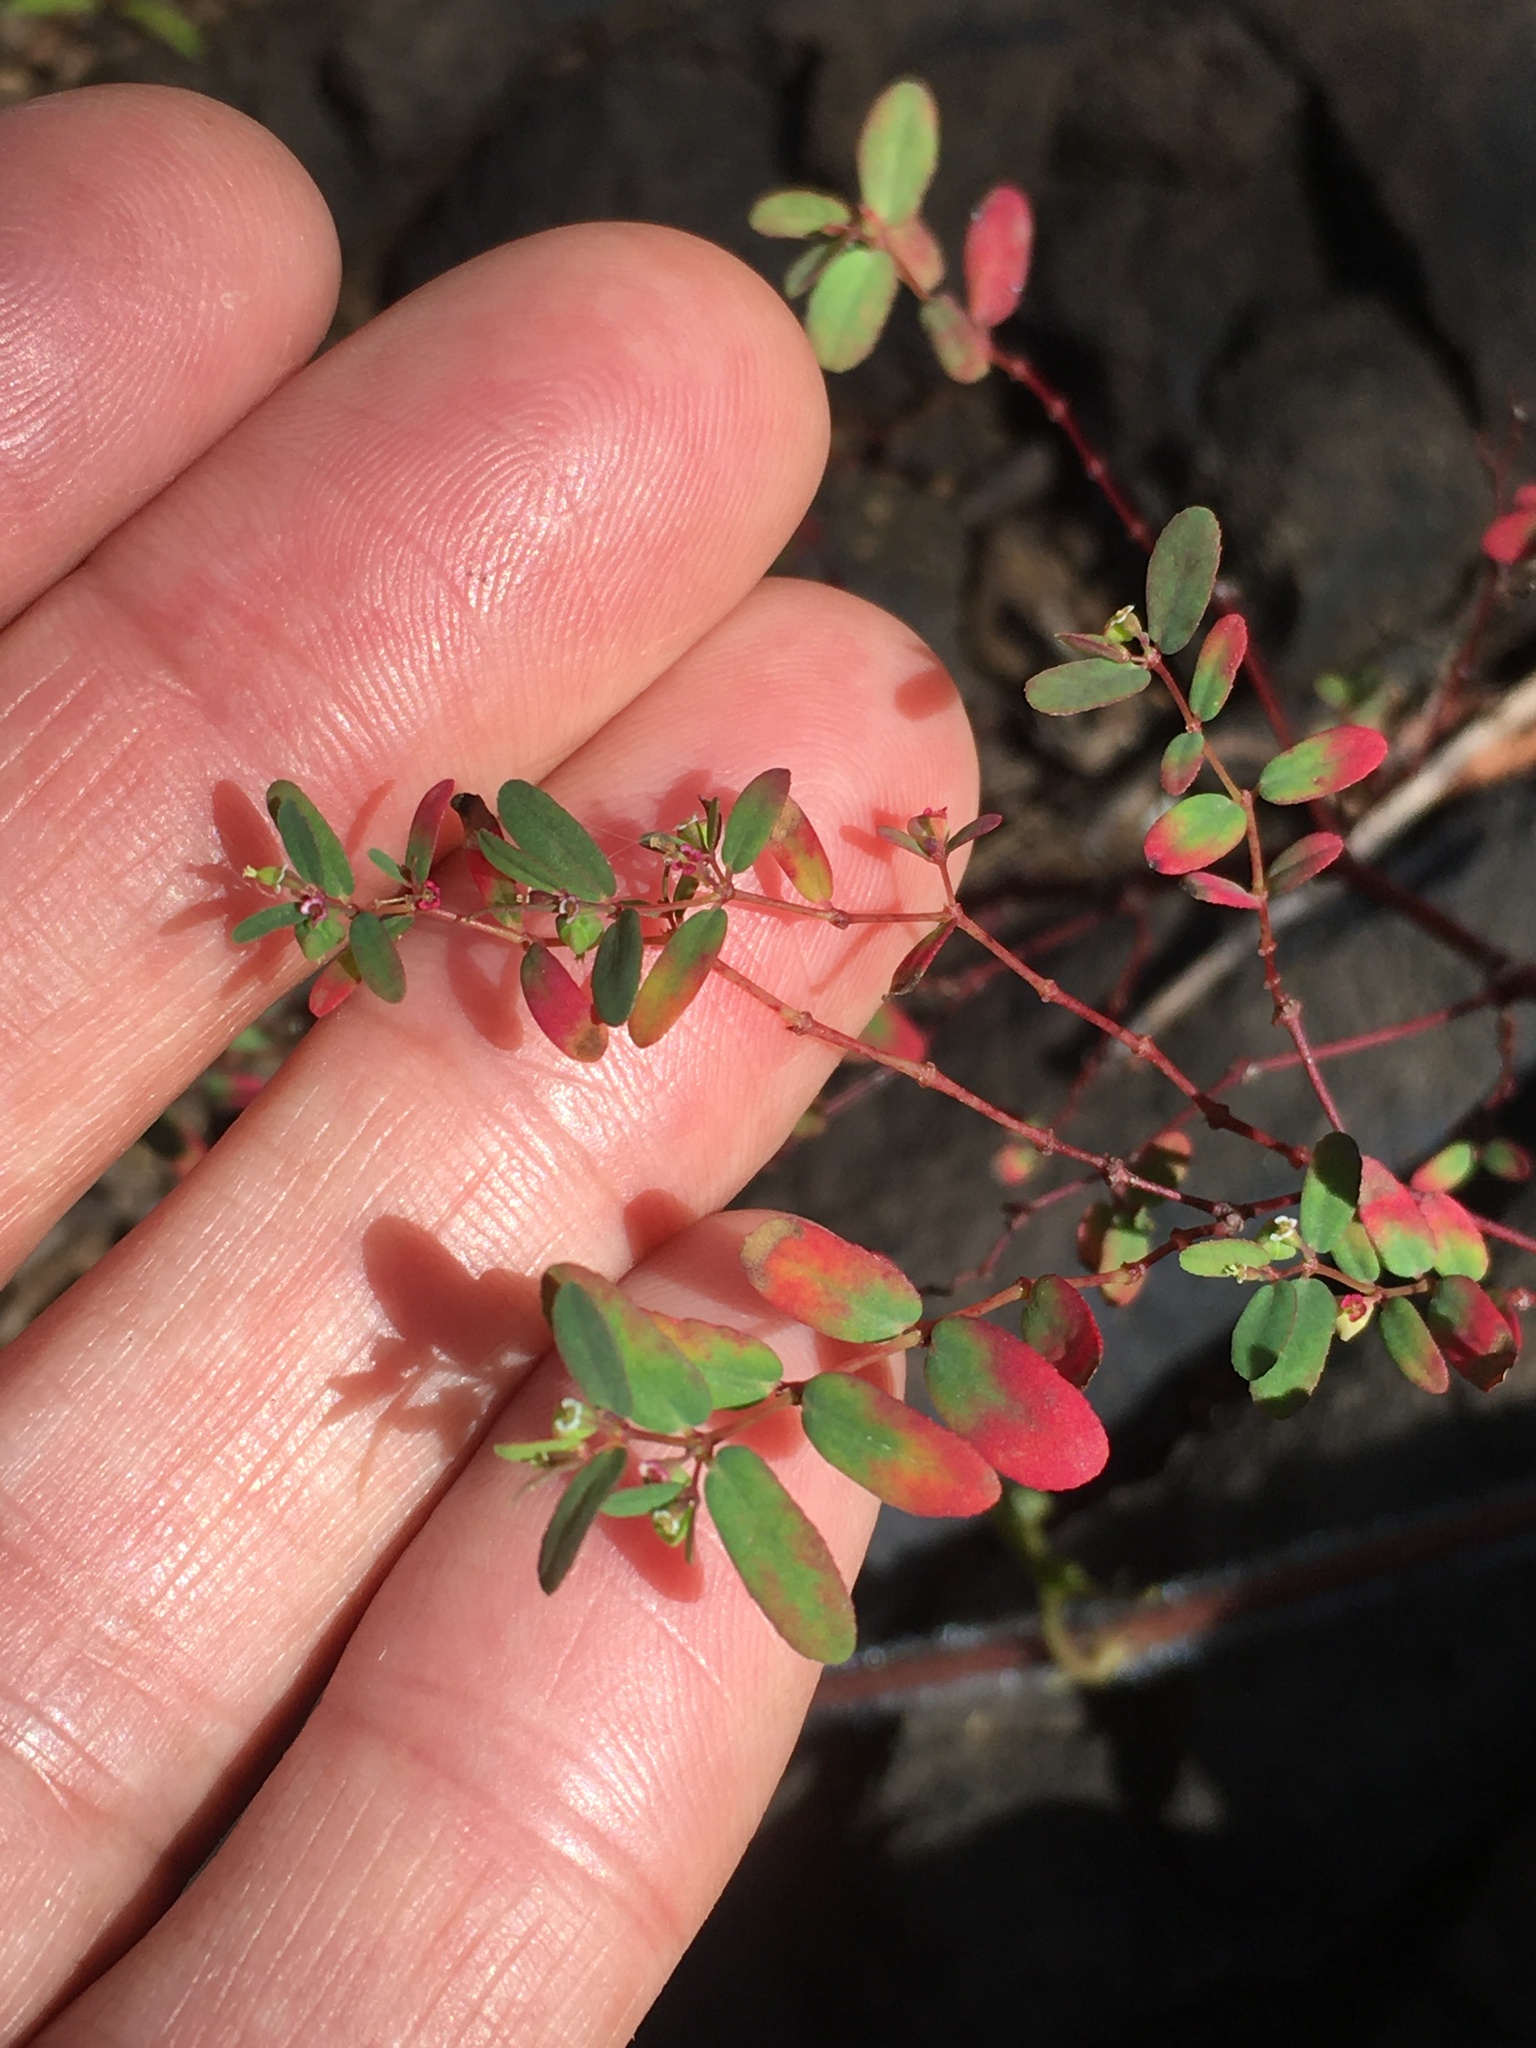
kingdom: Plantae
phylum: Tracheophyta
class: Magnoliopsida
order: Malpighiales
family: Euphorbiaceae
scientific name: Euphorbiaceae
